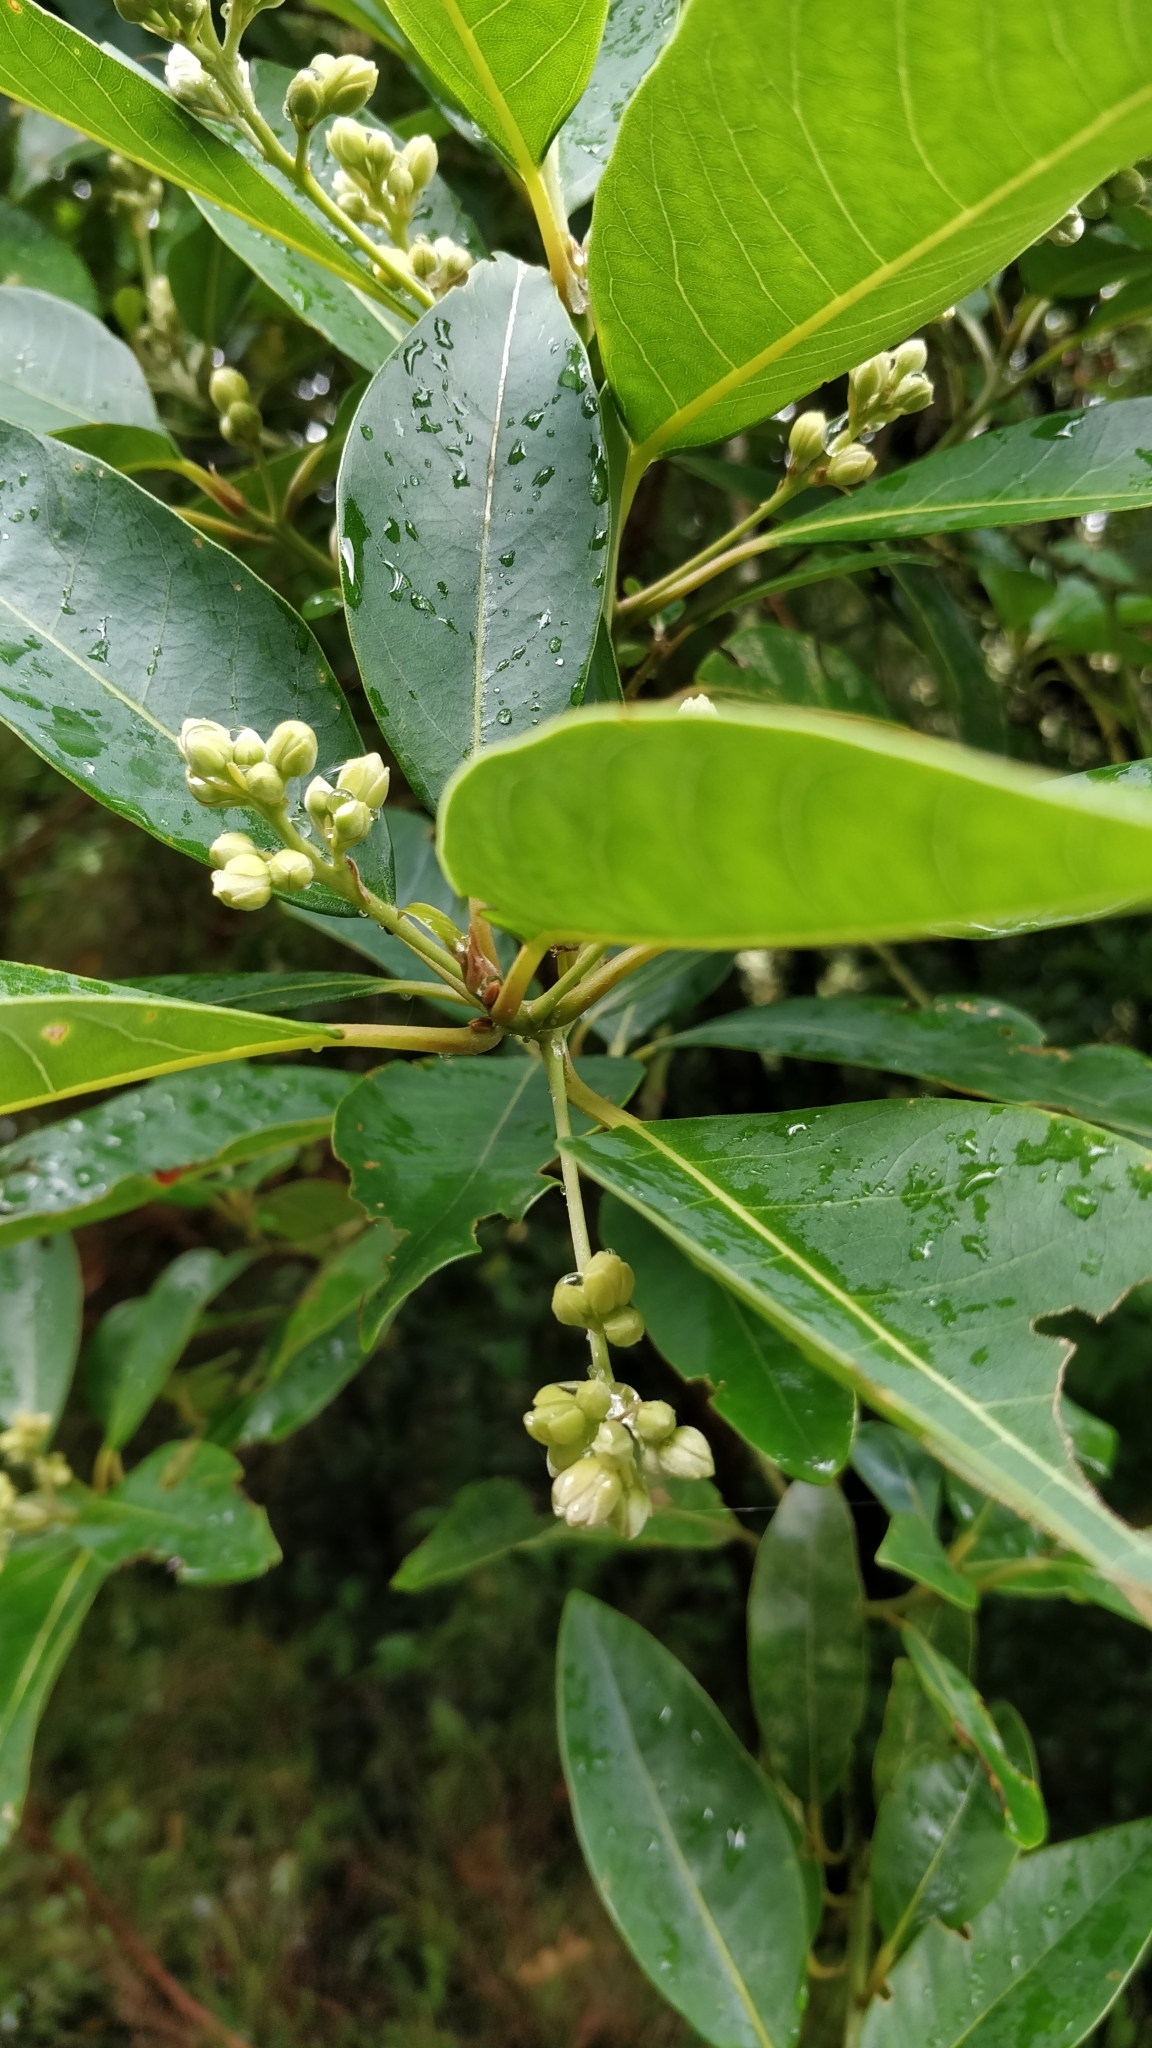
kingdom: Plantae
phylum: Tracheophyta
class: Magnoliopsida
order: Laurales
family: Lauraceae
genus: Persea
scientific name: Persea indica
